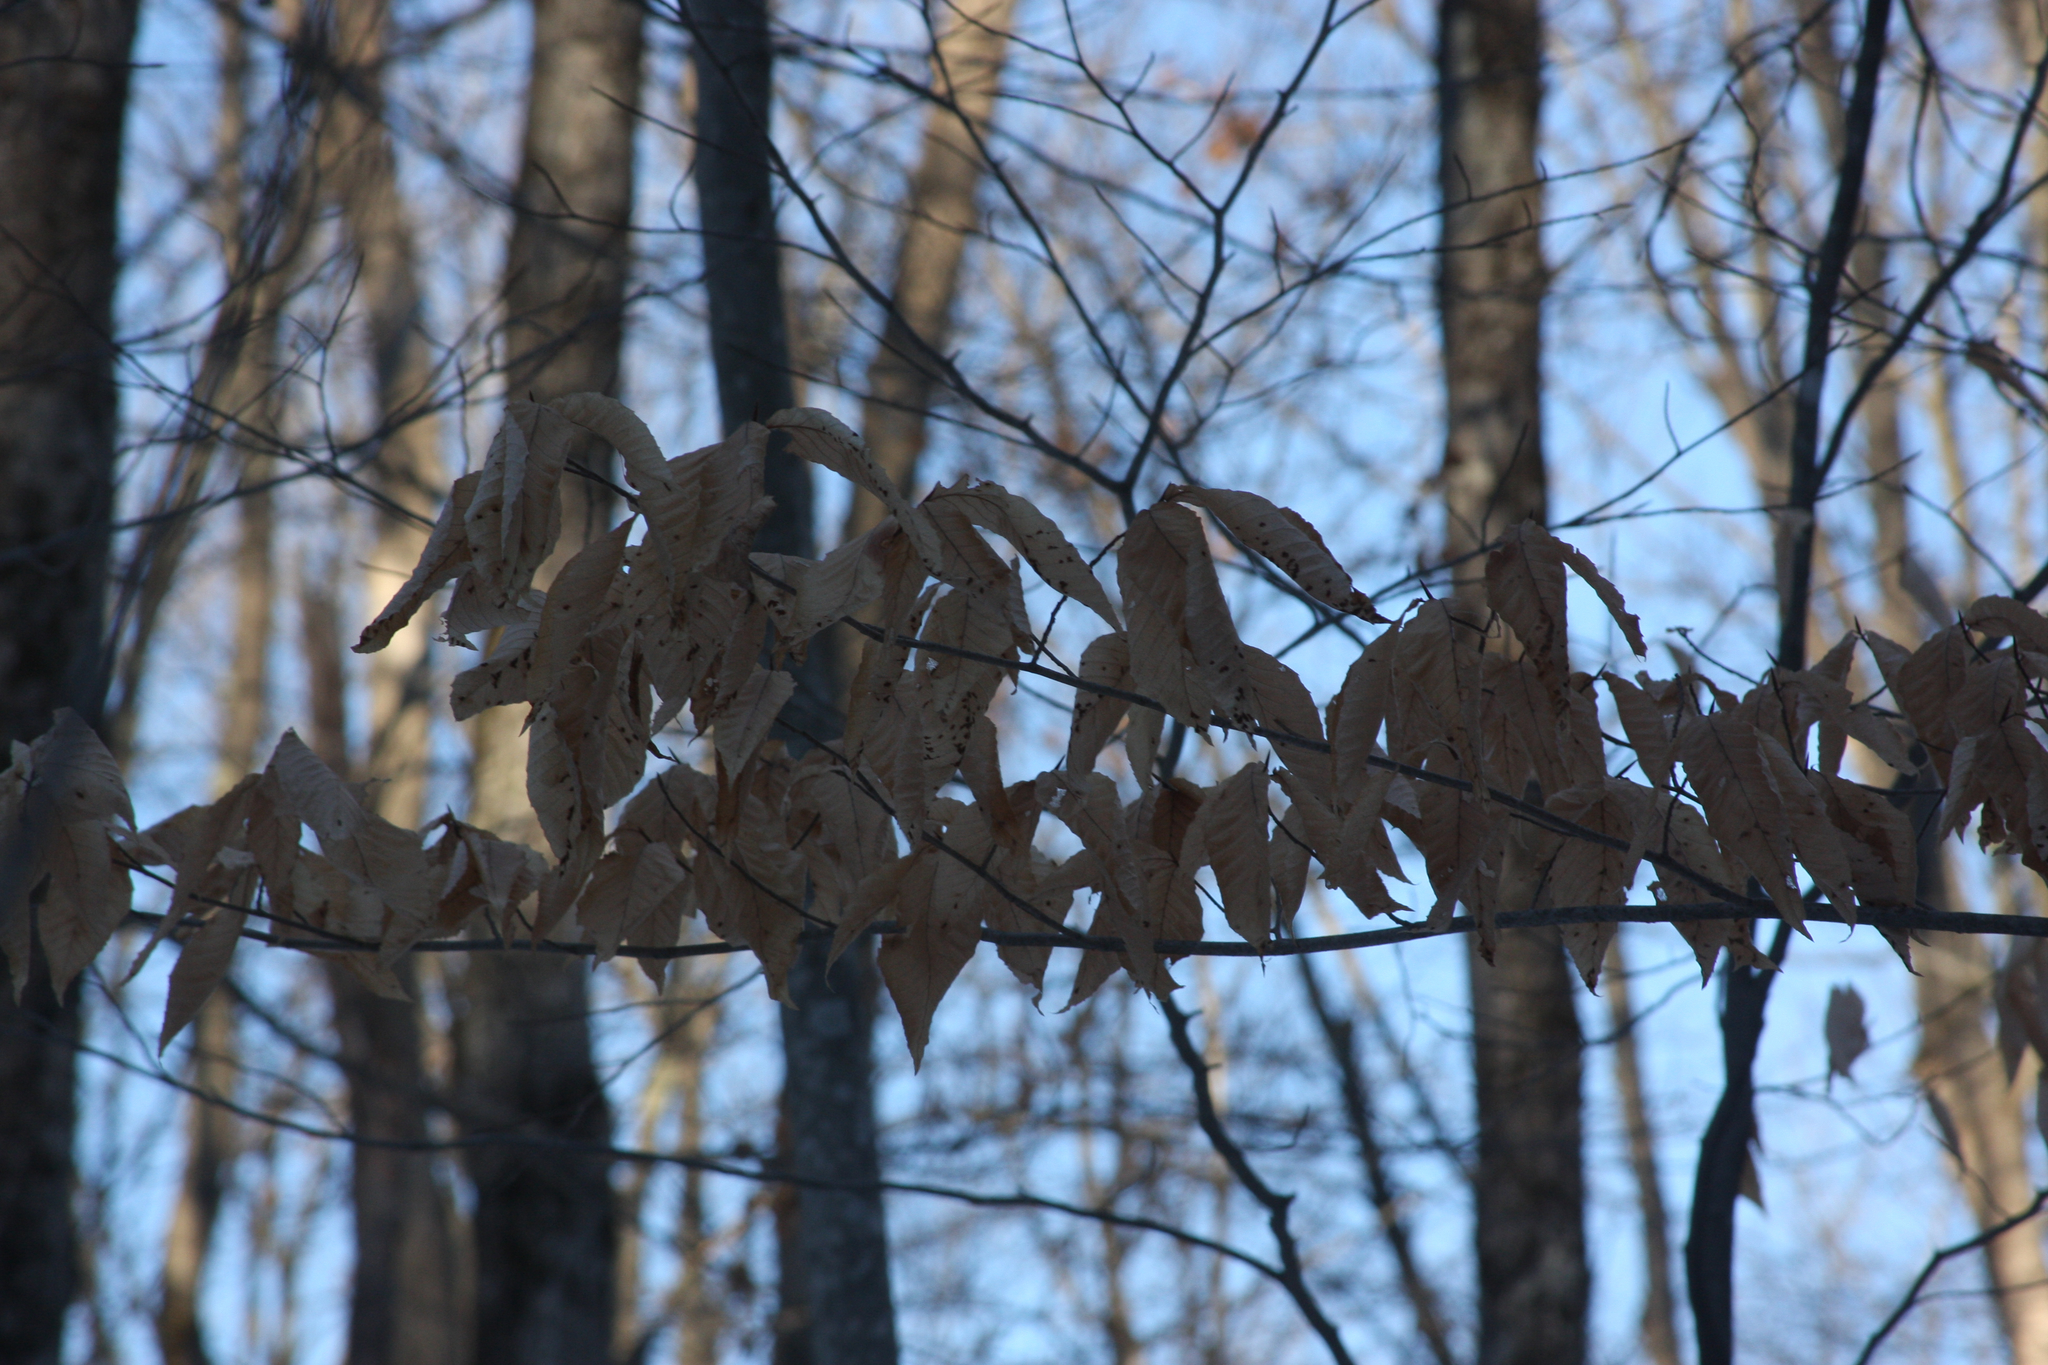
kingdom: Plantae
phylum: Tracheophyta
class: Magnoliopsida
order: Fagales
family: Fagaceae
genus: Fagus
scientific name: Fagus grandifolia
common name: American beech
